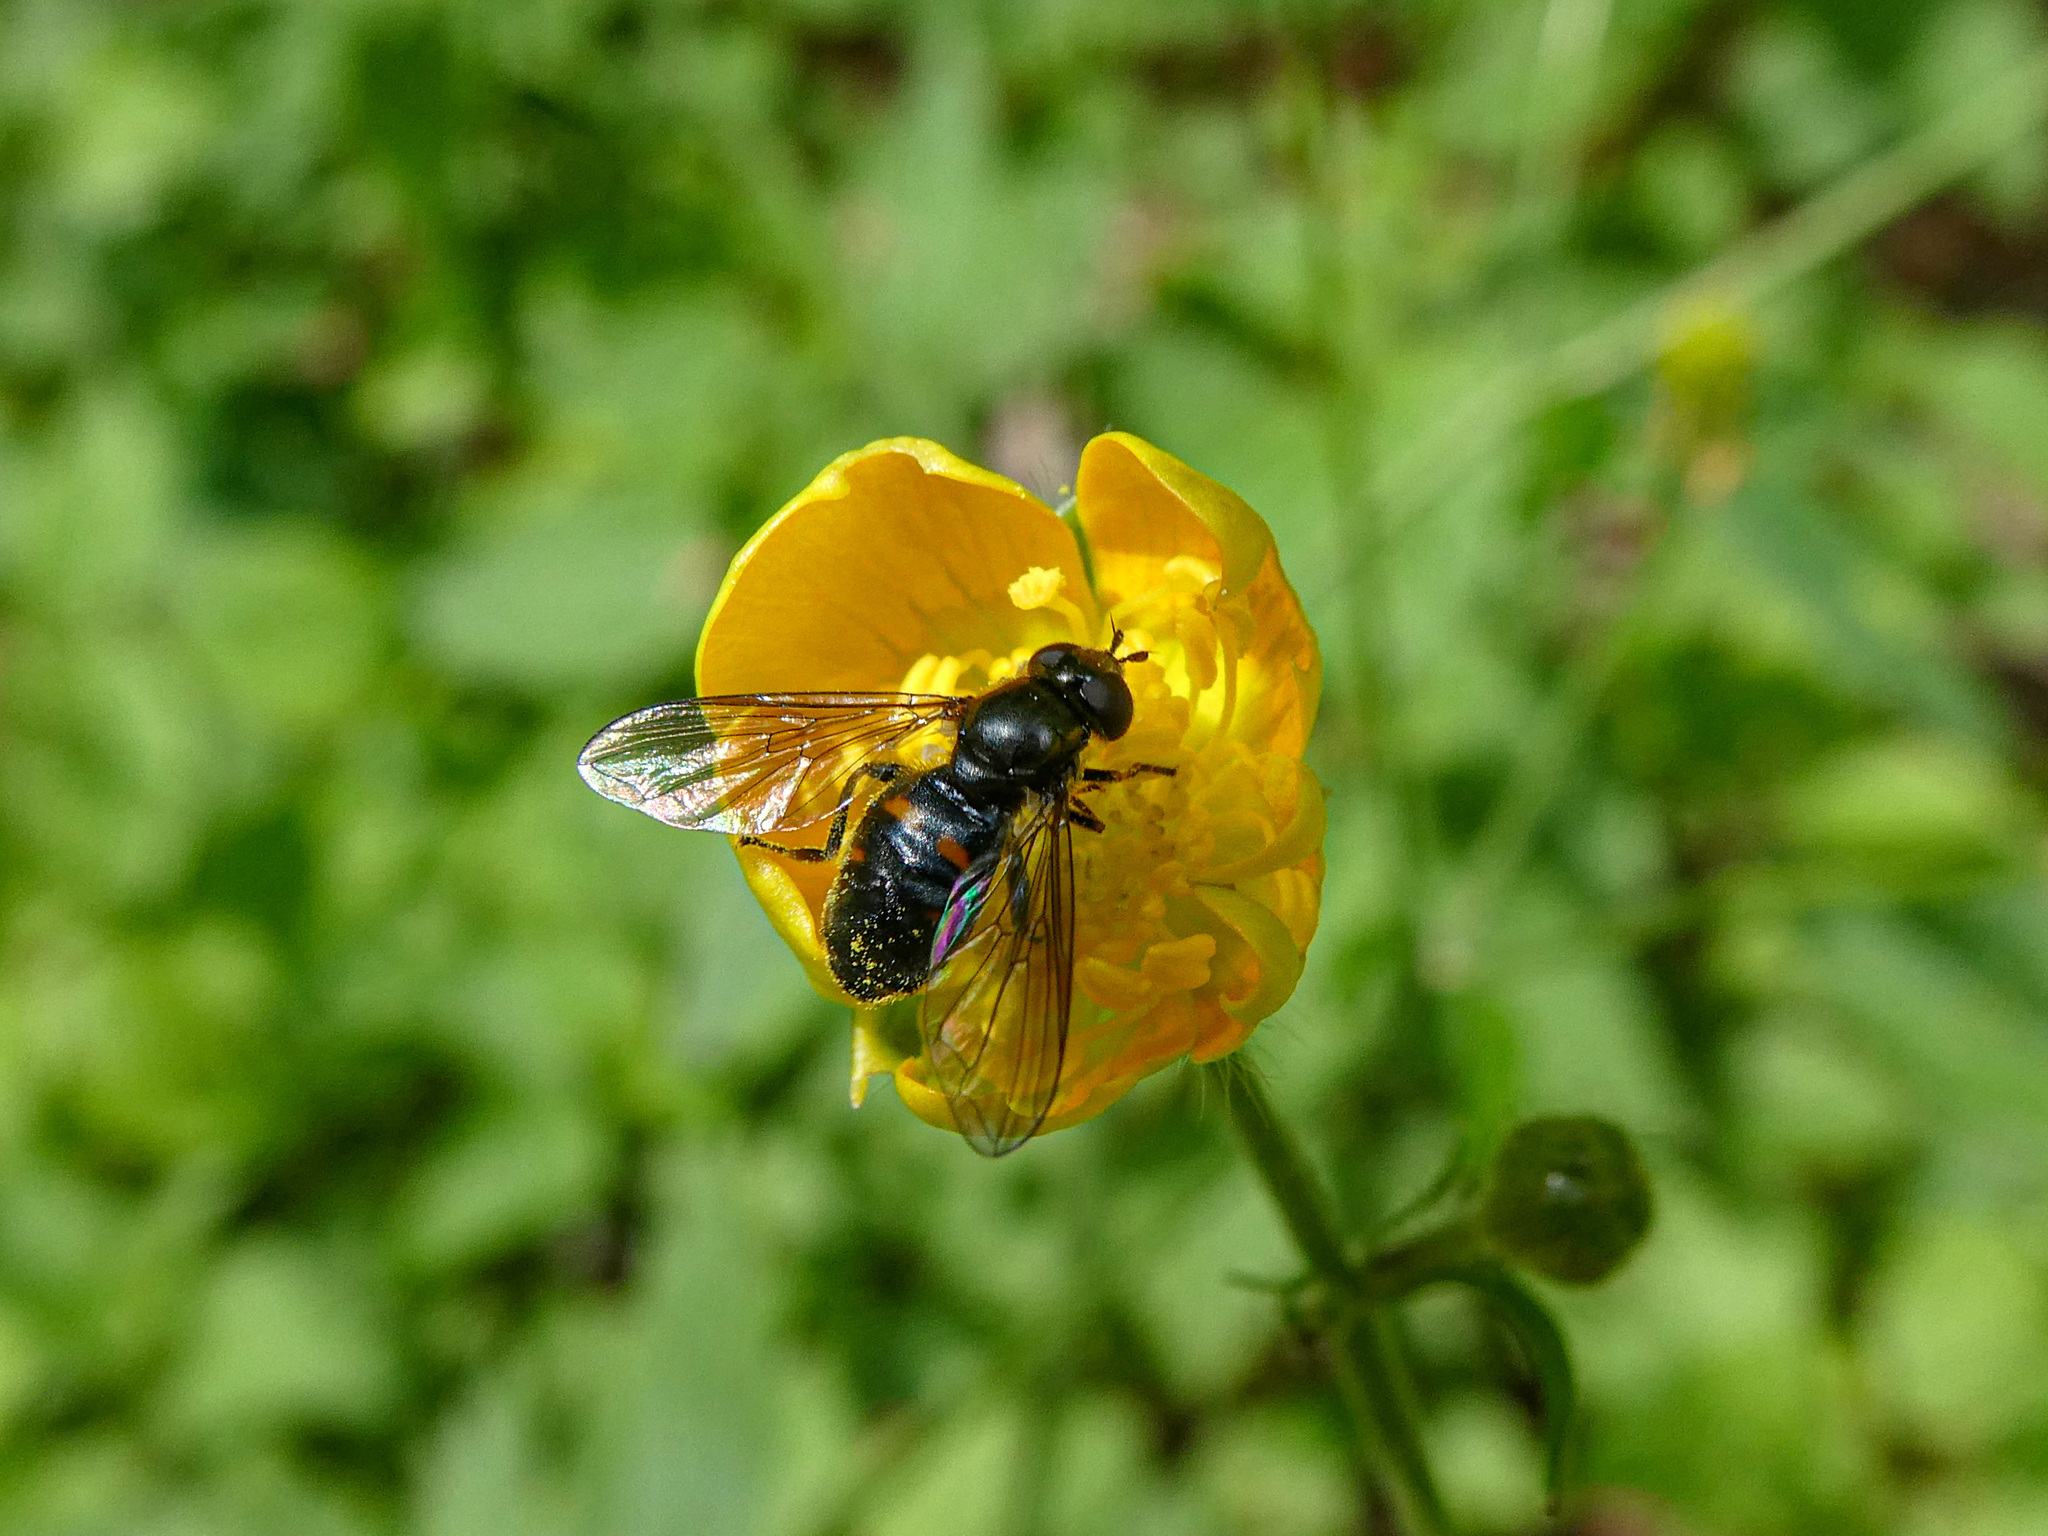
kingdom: Animalia
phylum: Arthropoda
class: Insecta
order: Diptera
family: Syrphidae
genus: Pipiza
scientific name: Pipiza quadrimaculata
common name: Four-spotted pipiza
